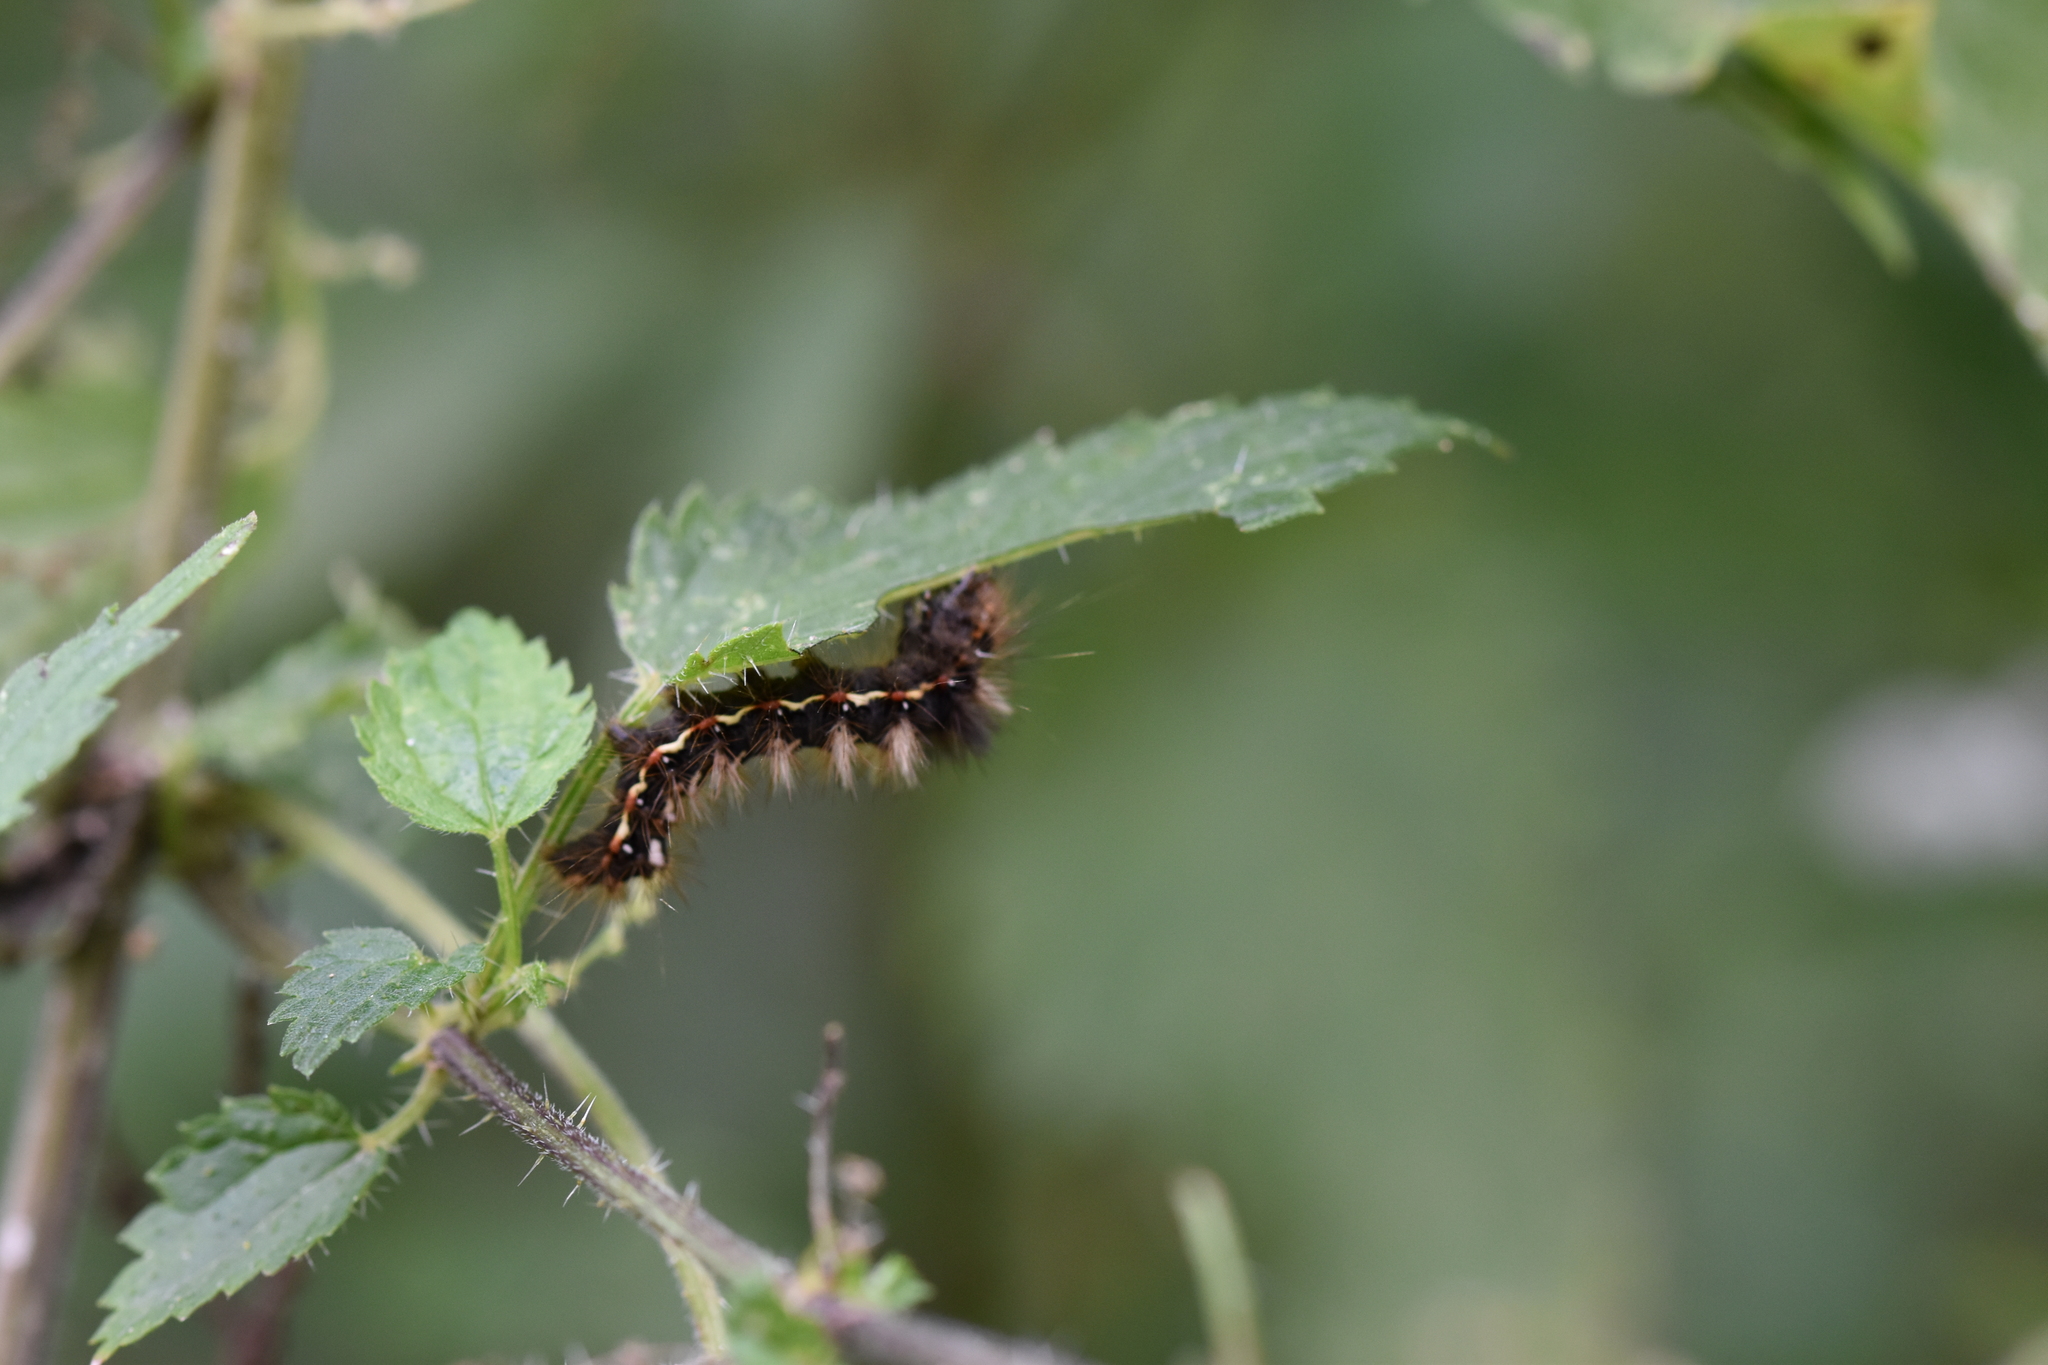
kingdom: Animalia
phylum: Arthropoda
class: Insecta
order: Lepidoptera
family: Noctuidae
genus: Acronicta
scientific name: Acronicta rumicis
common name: Knot grass
